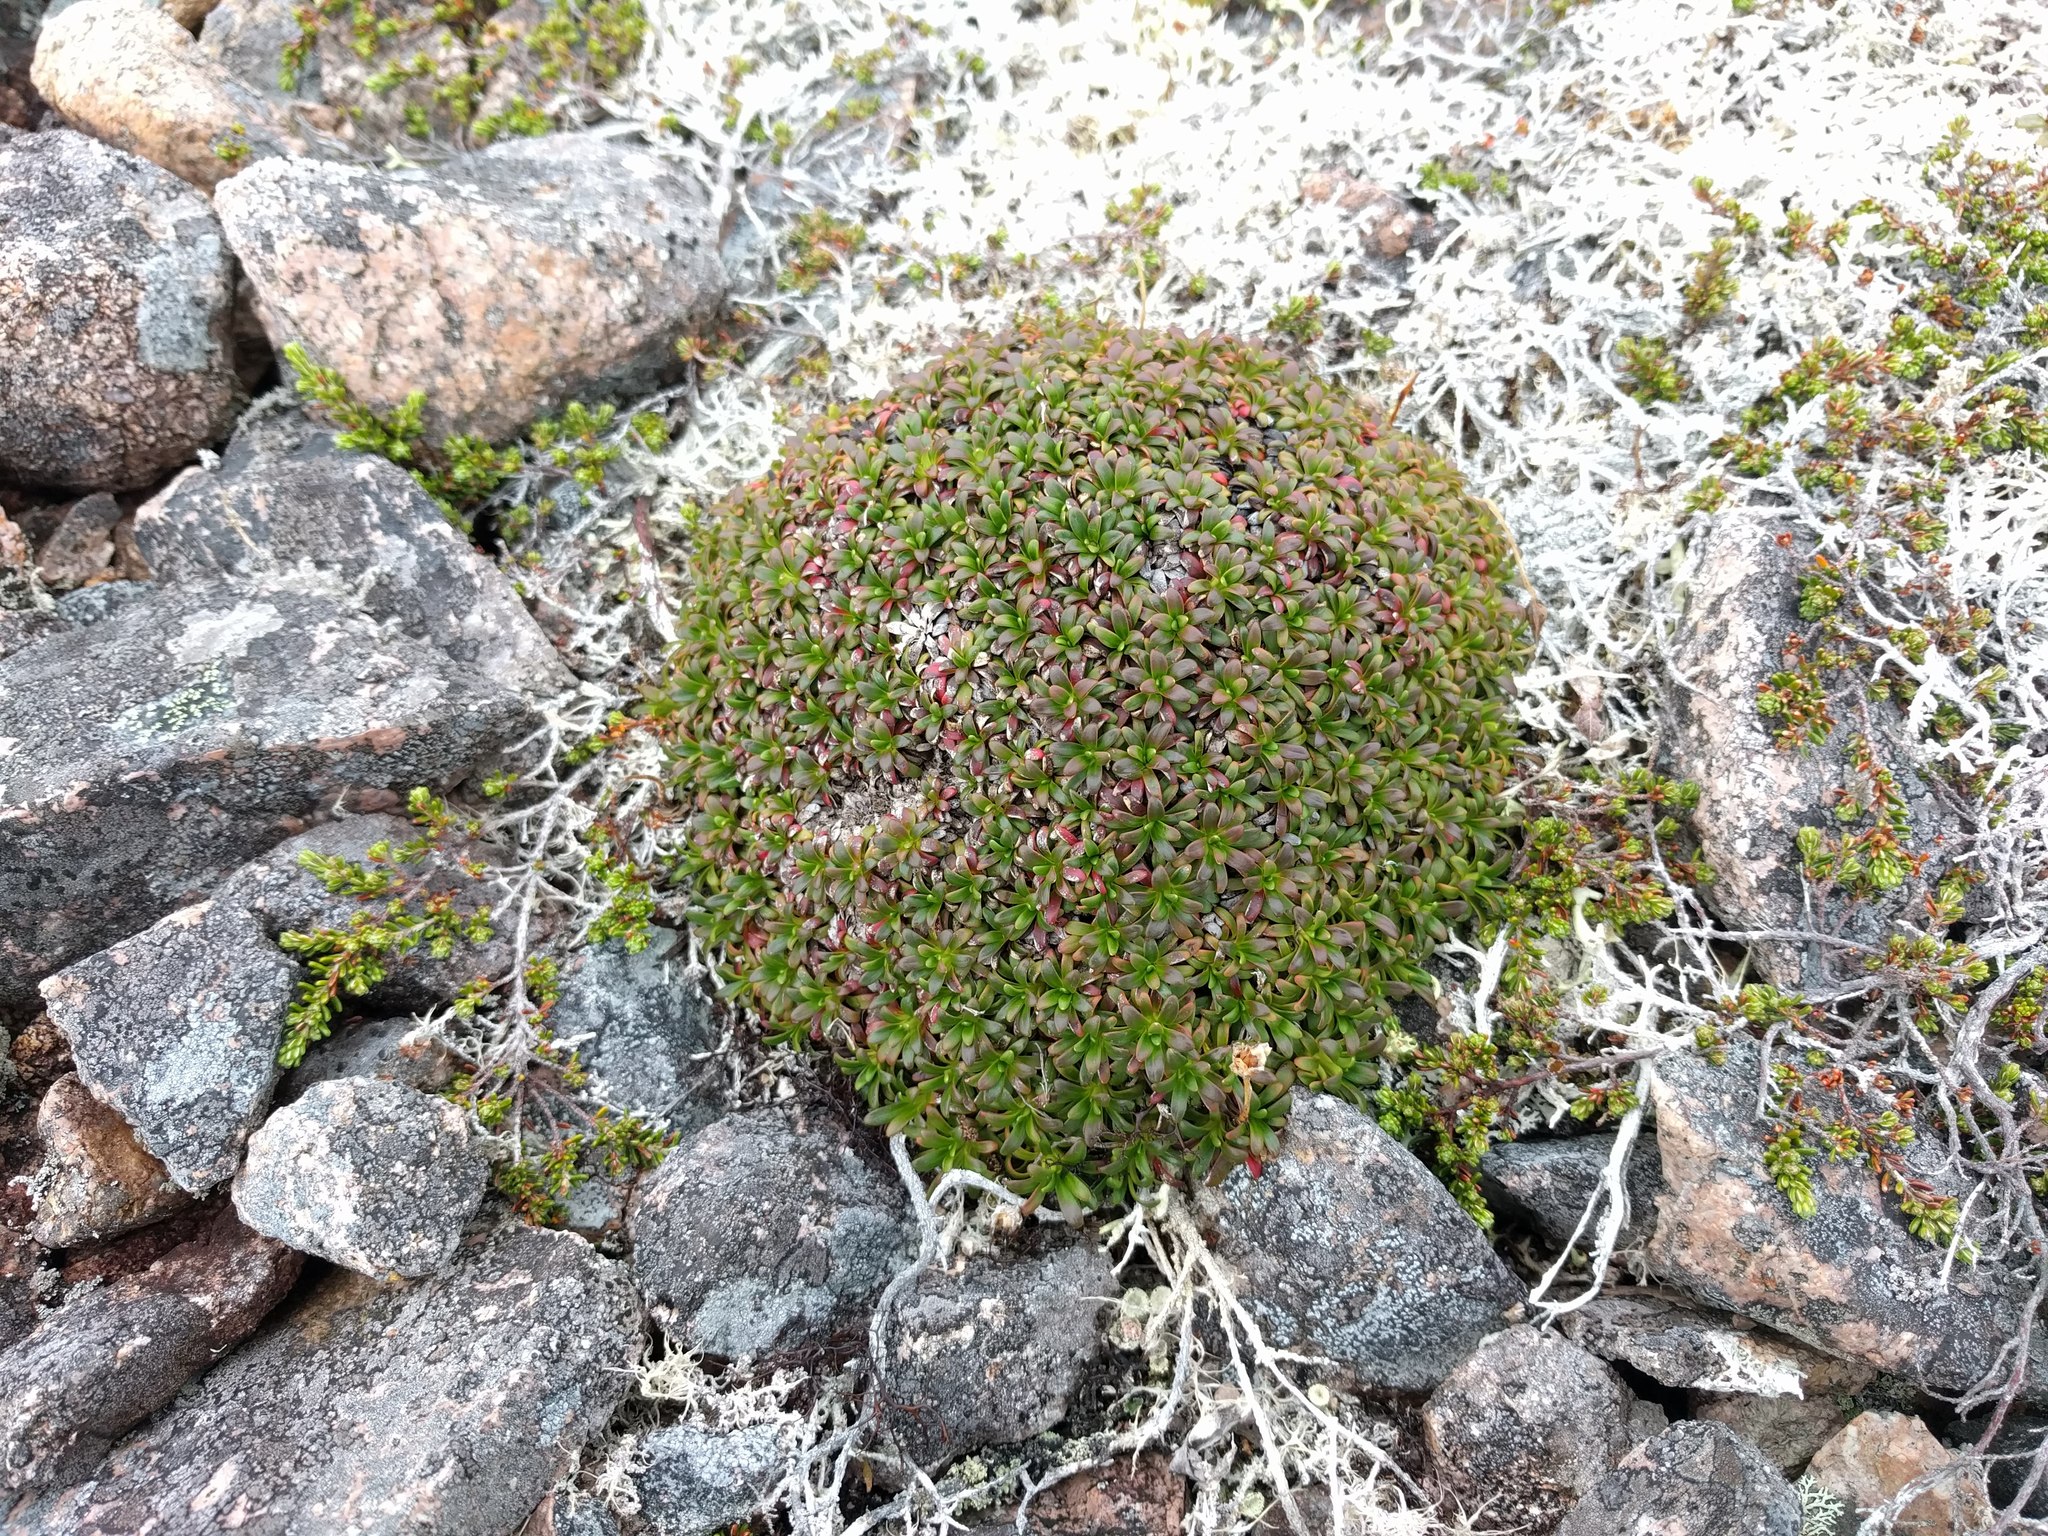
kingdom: Plantae
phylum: Tracheophyta
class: Magnoliopsida
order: Ericales
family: Diapensiaceae
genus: Diapensia
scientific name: Diapensia lapponica
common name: Diapensia
